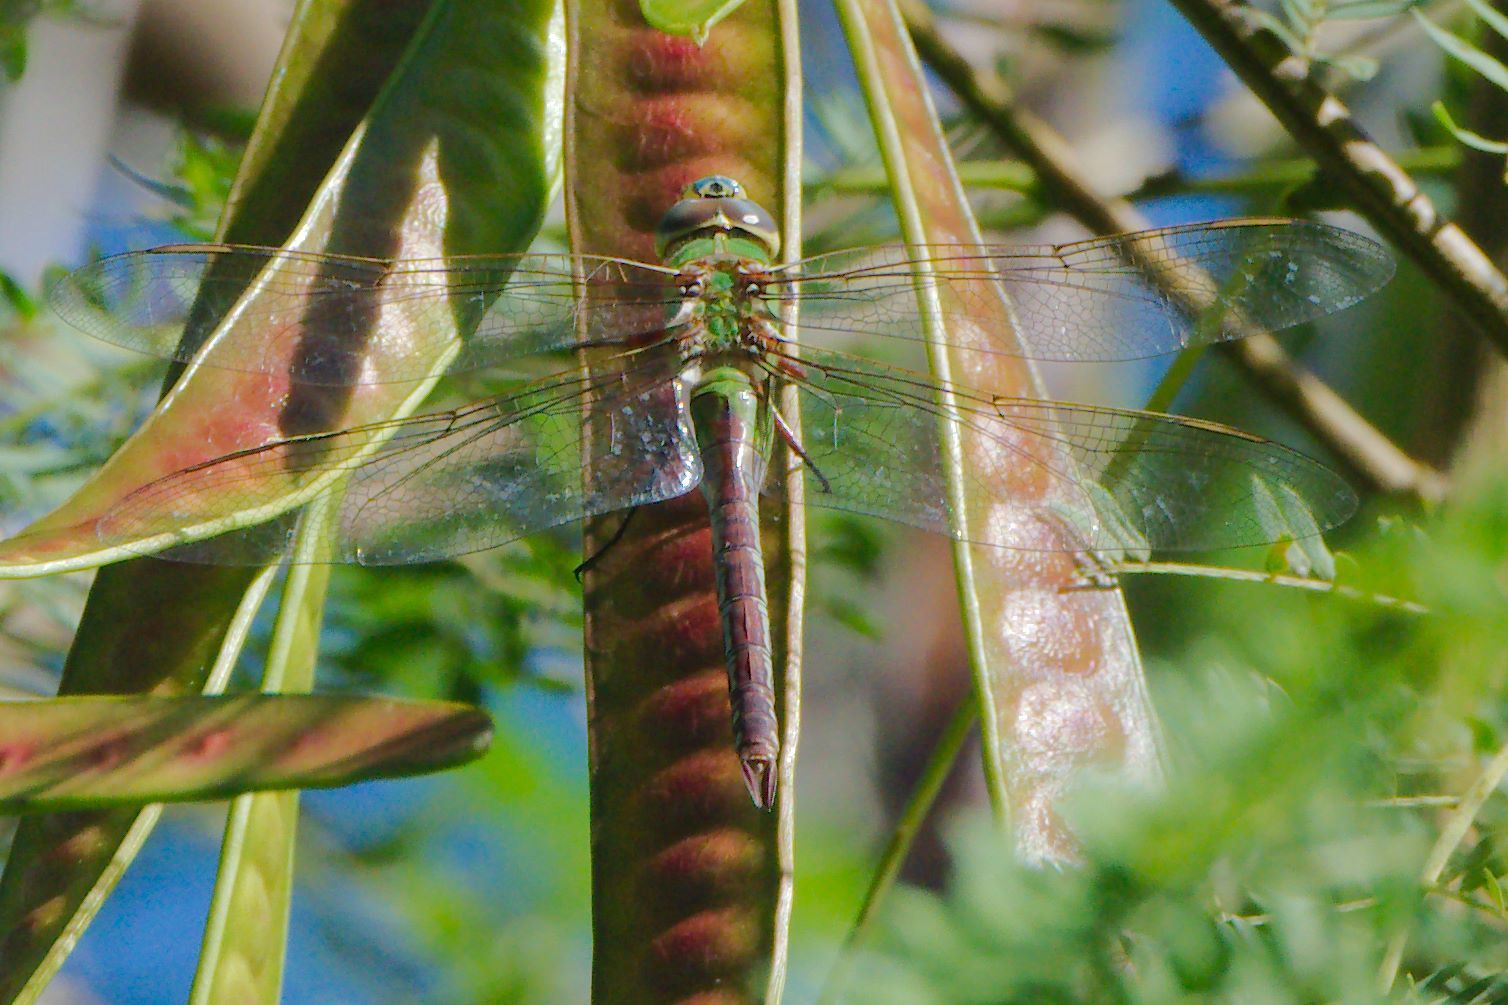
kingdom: Animalia
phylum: Arthropoda
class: Insecta
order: Odonata
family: Aeshnidae
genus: Anax
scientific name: Anax junius
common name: Common green darner
